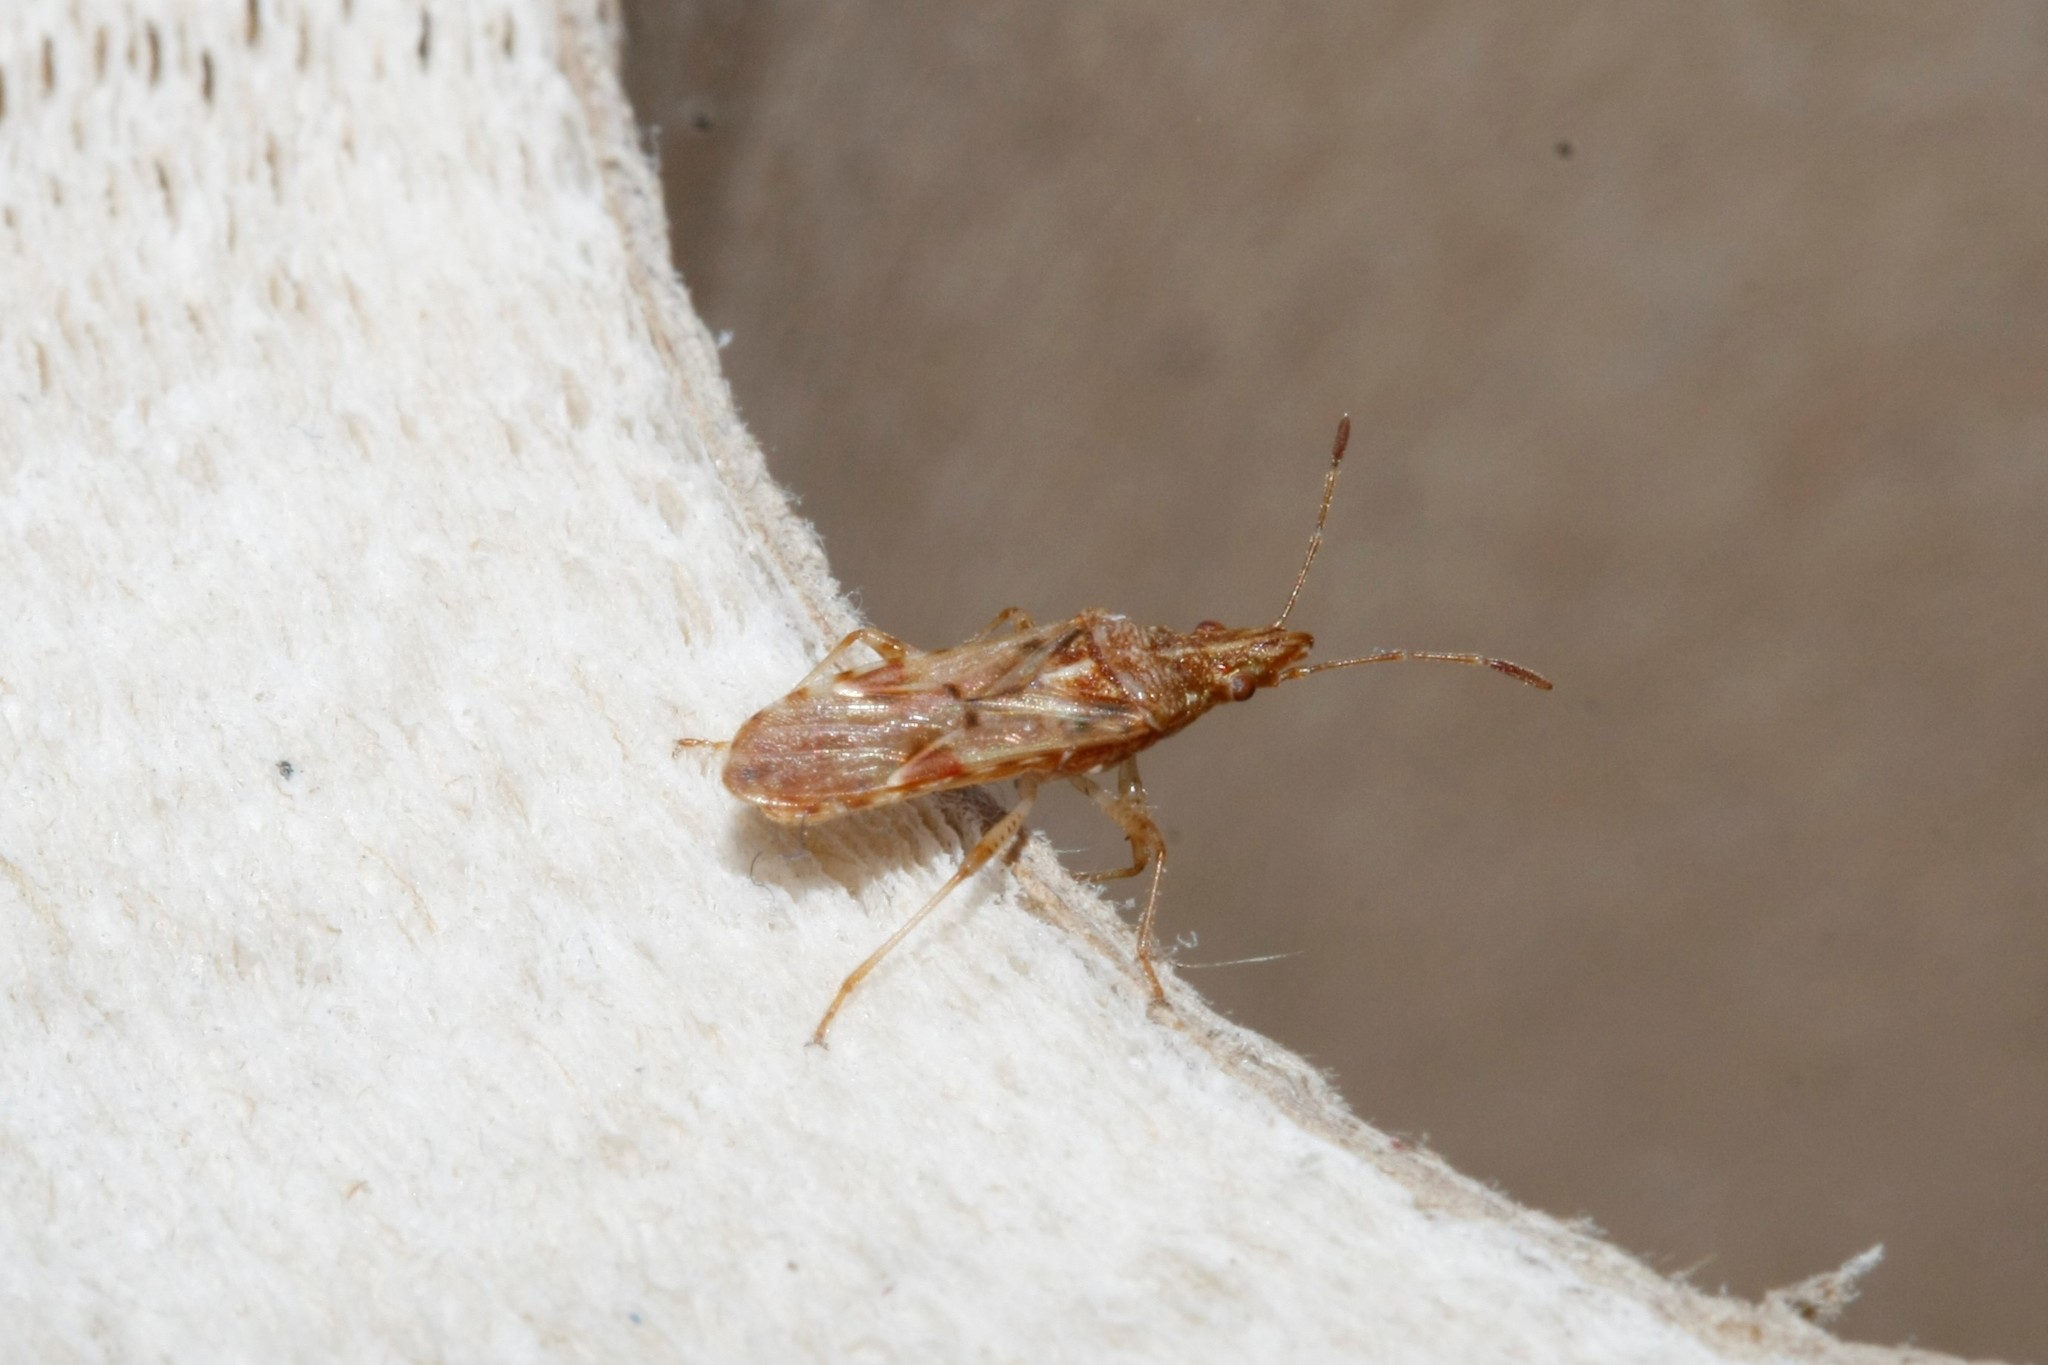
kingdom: Animalia
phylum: Arthropoda
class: Insecta
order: Hemiptera
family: Lygaeidae
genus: Belonochilus
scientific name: Belonochilus numenius
